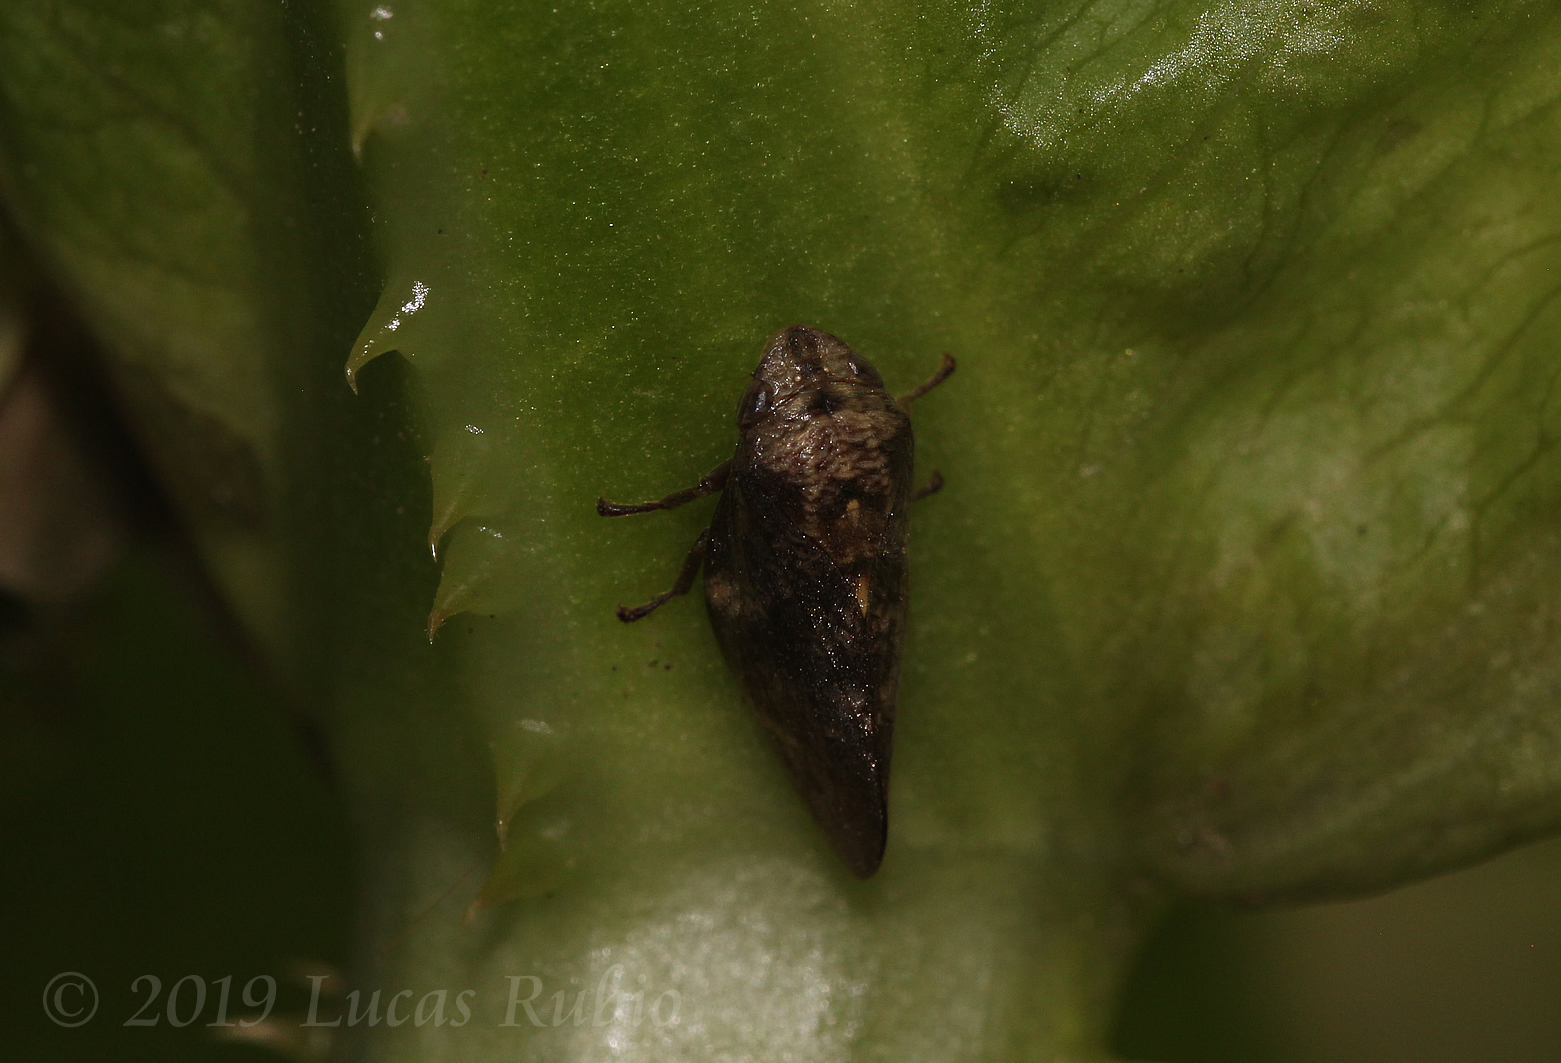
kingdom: Animalia
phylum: Arthropoda
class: Insecta
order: Hemiptera
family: Aphrophoridae
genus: Cephisus
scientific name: Cephisus siccifolius
